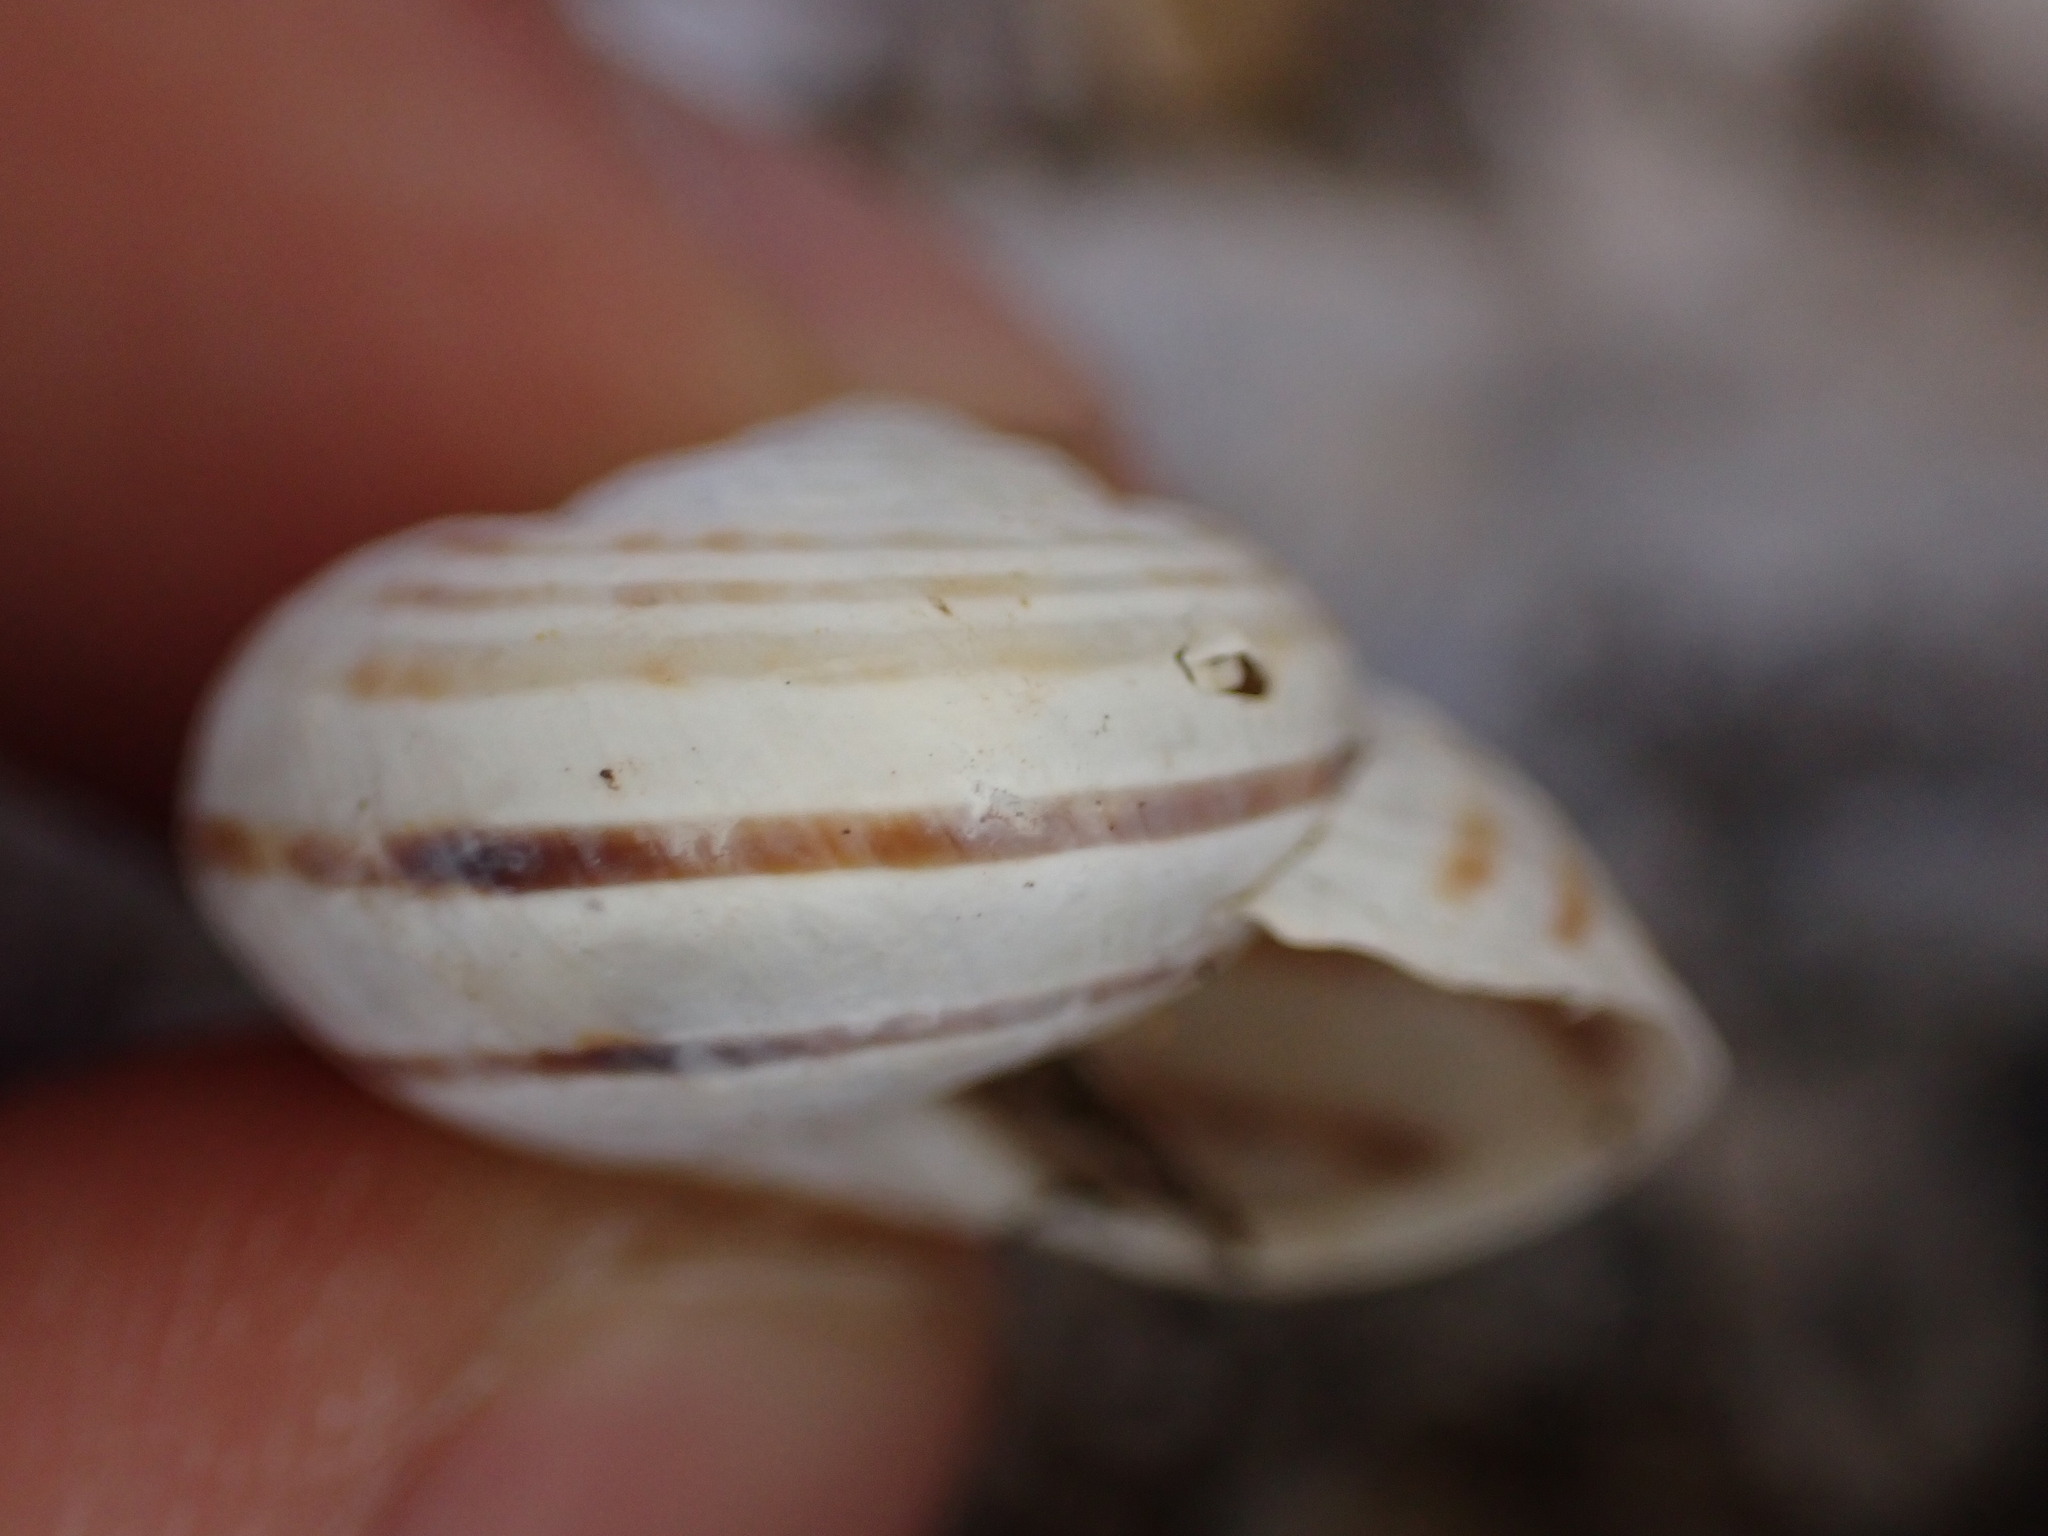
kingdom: Animalia
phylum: Mollusca
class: Gastropoda
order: Stylommatophora
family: Helicidae
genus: Pseudotachea
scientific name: Pseudotachea splendida
